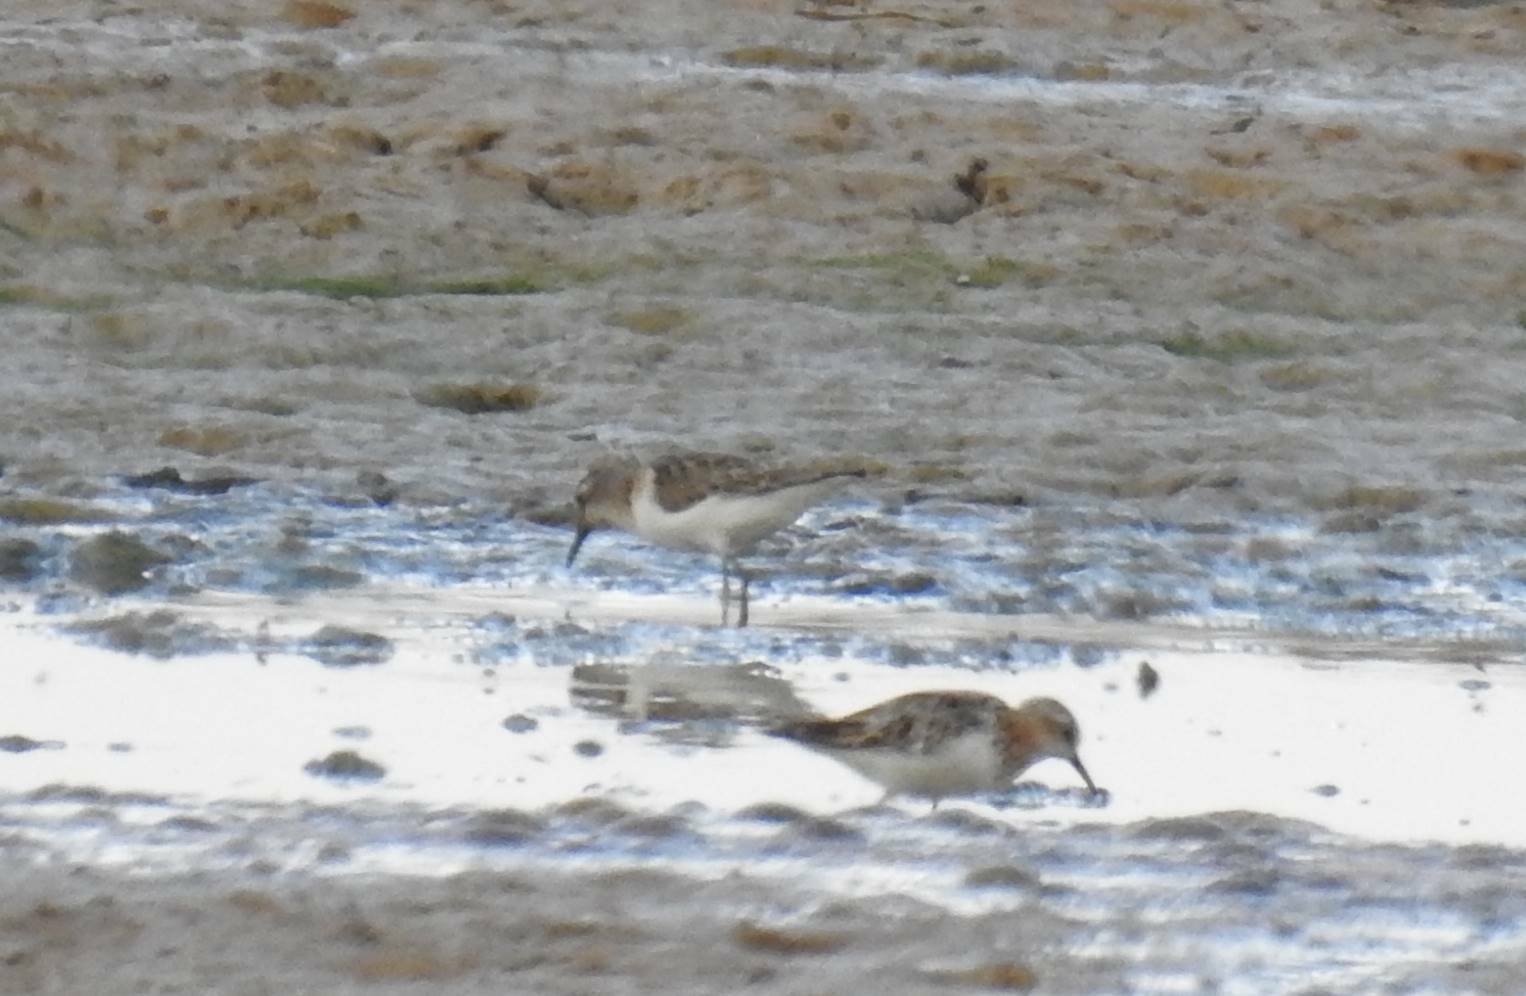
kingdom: Animalia
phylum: Chordata
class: Aves
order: Charadriiformes
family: Scolopacidae
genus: Calidris
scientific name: Calidris minuta
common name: Little stint
